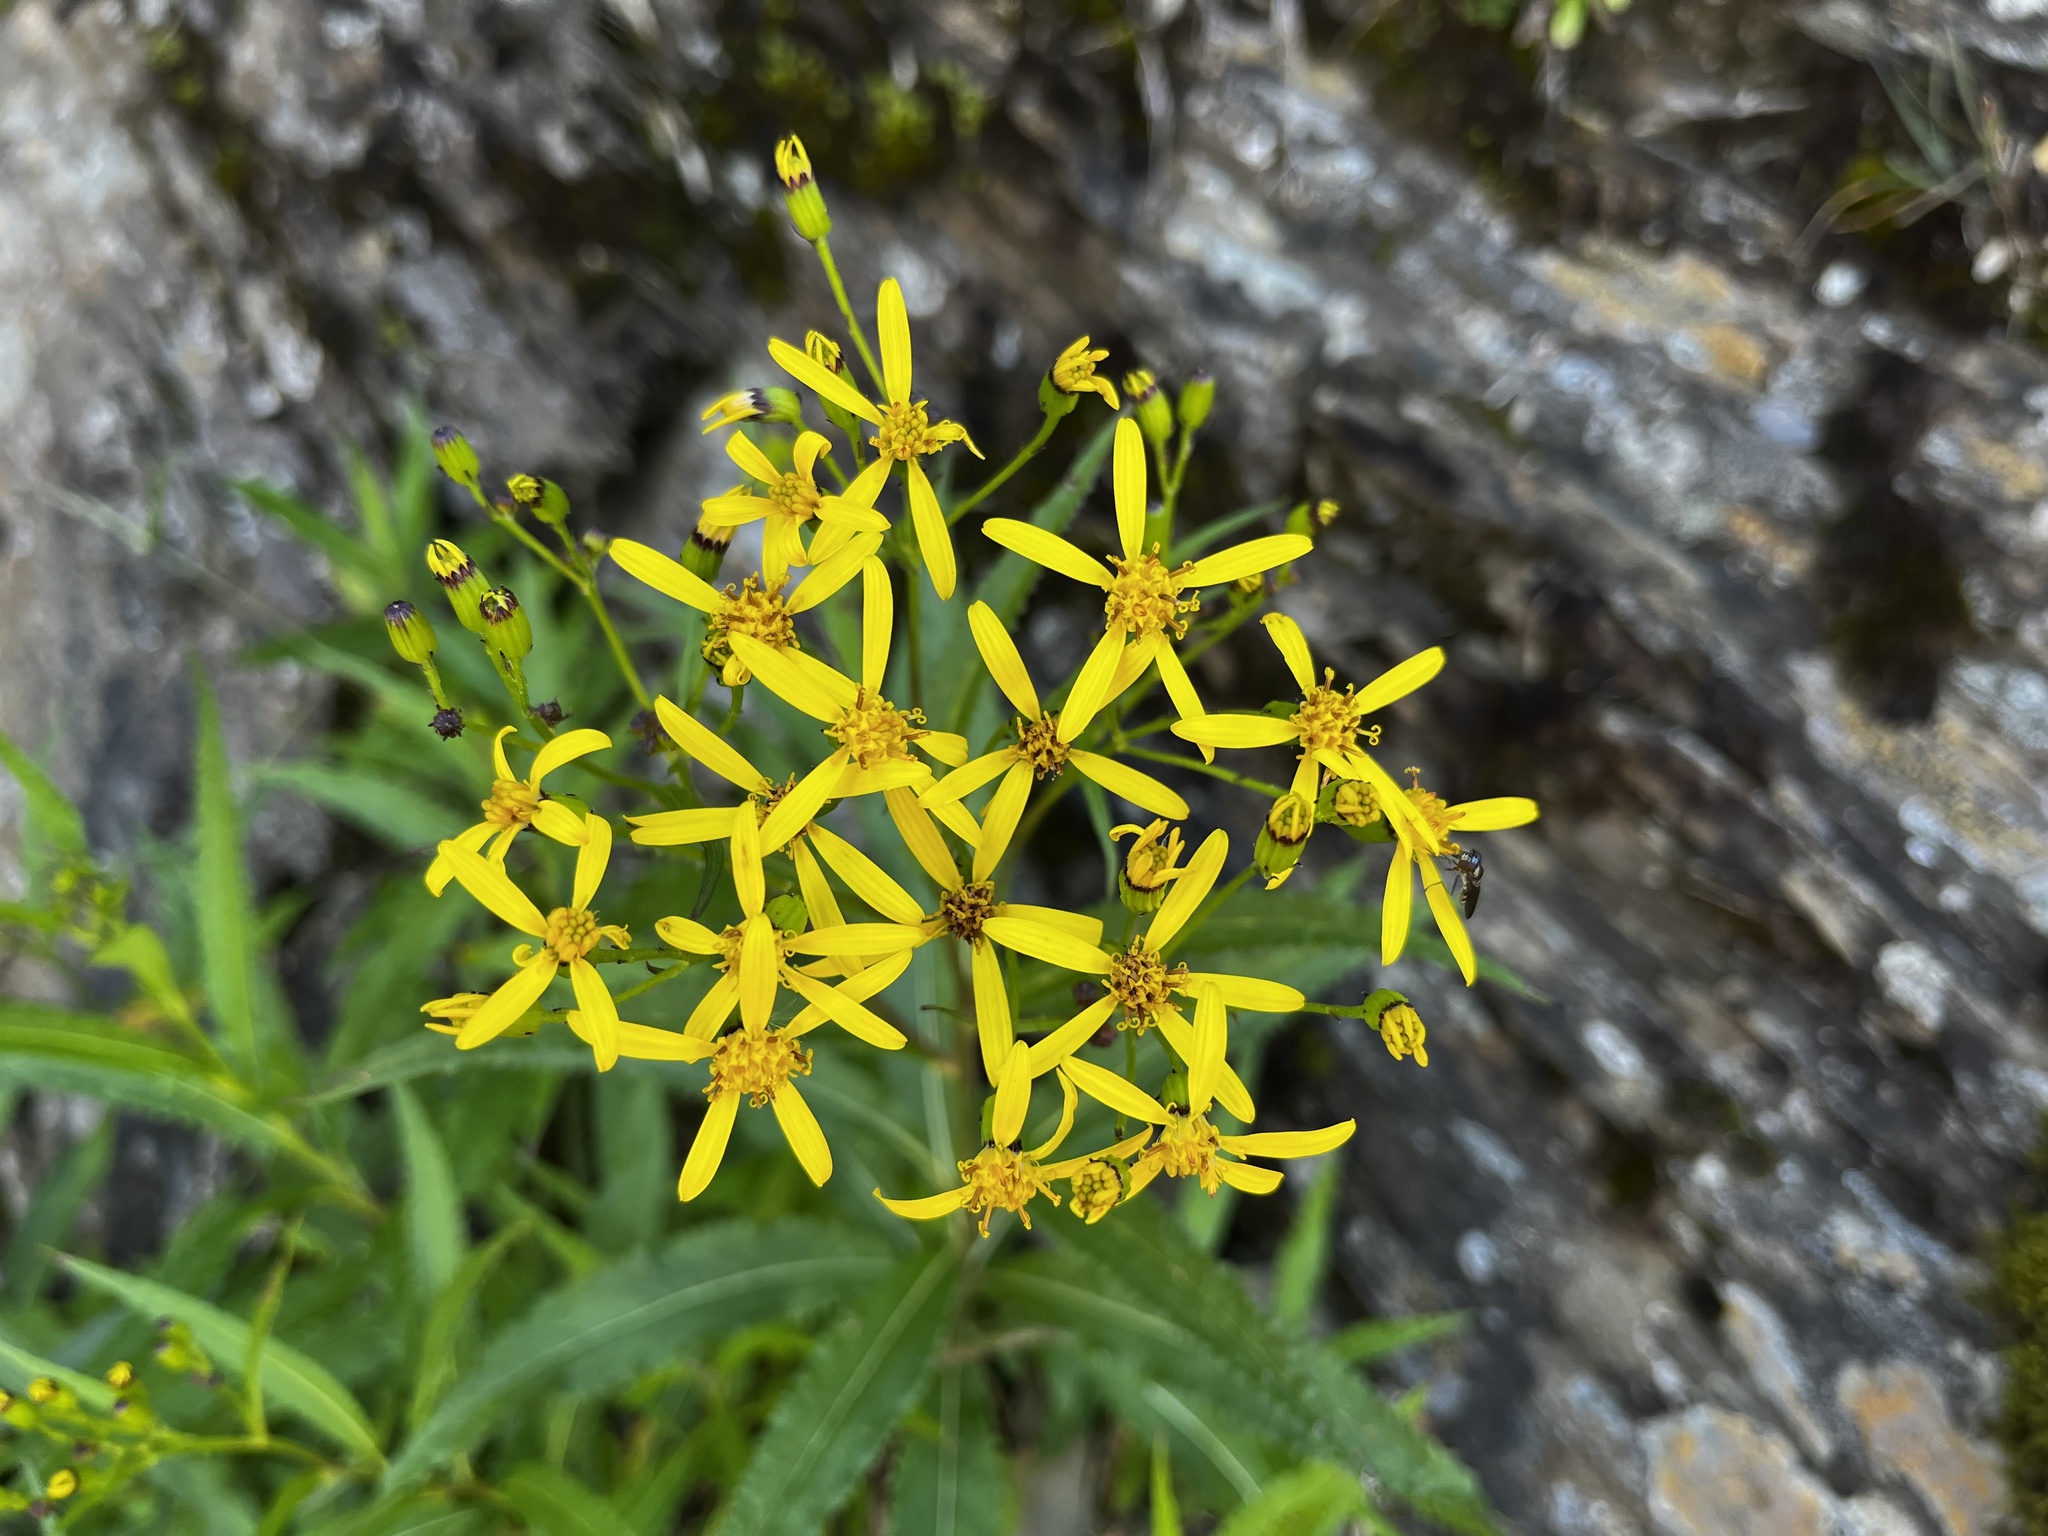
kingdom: Plantae
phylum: Tracheophyta
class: Magnoliopsida
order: Asterales
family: Asteraceae
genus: Senecio
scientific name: Senecio nemorensis
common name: Alpine ragwort
